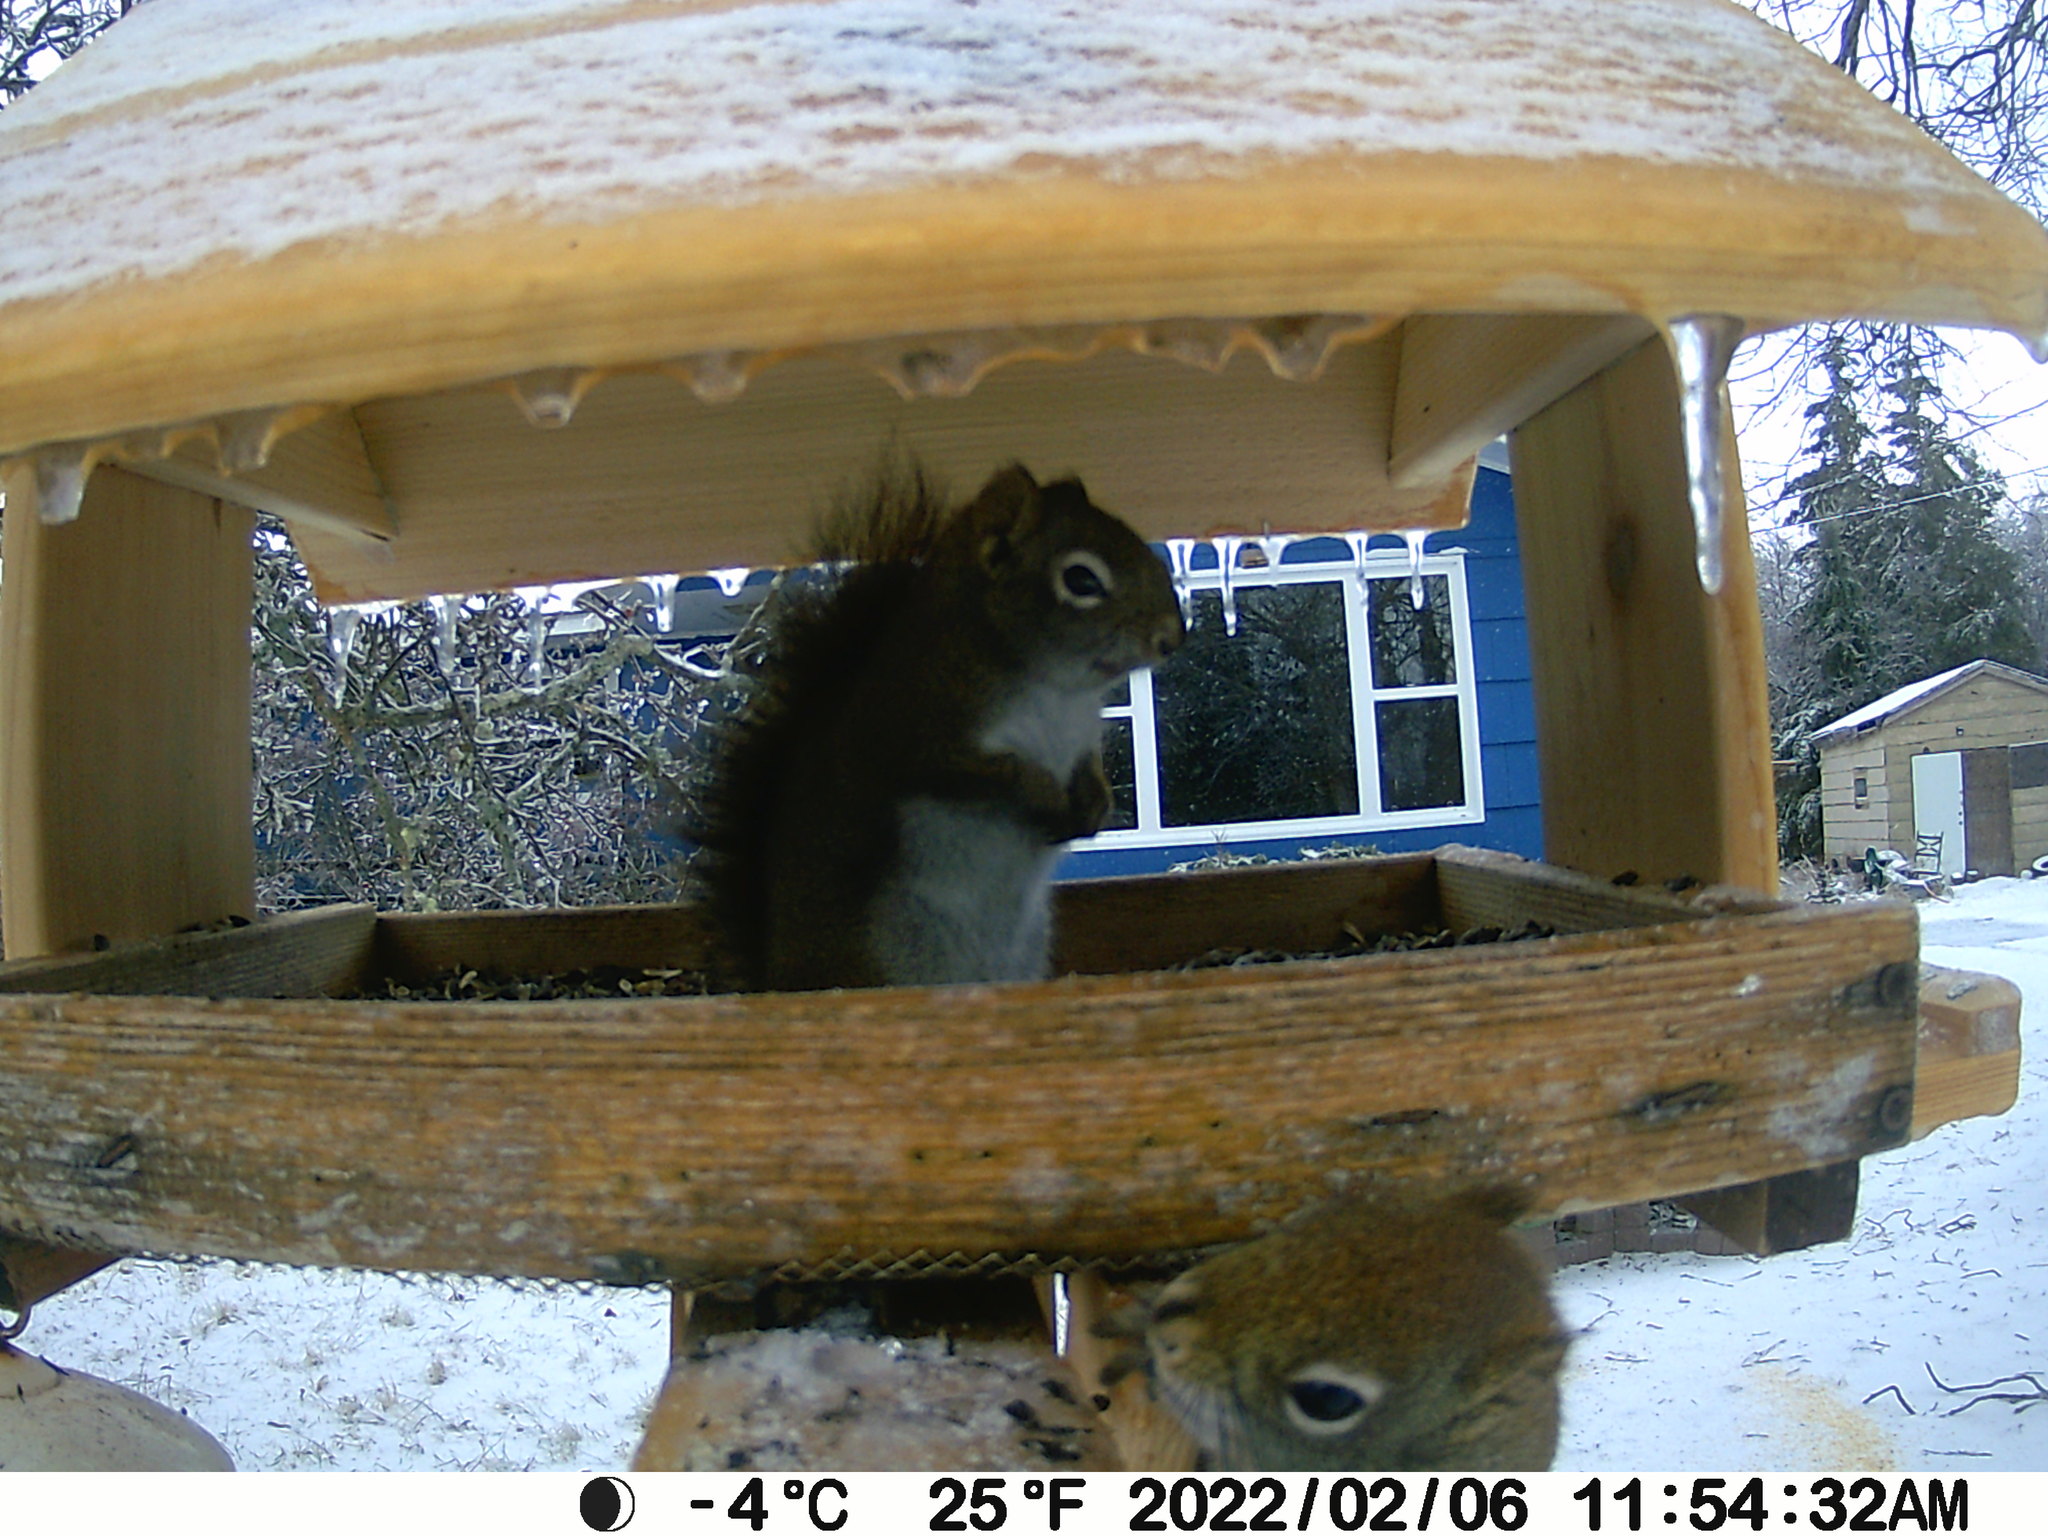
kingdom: Animalia
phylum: Chordata
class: Mammalia
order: Rodentia
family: Sciuridae
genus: Tamiasciurus
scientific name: Tamiasciurus hudsonicus
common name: Red squirrel
